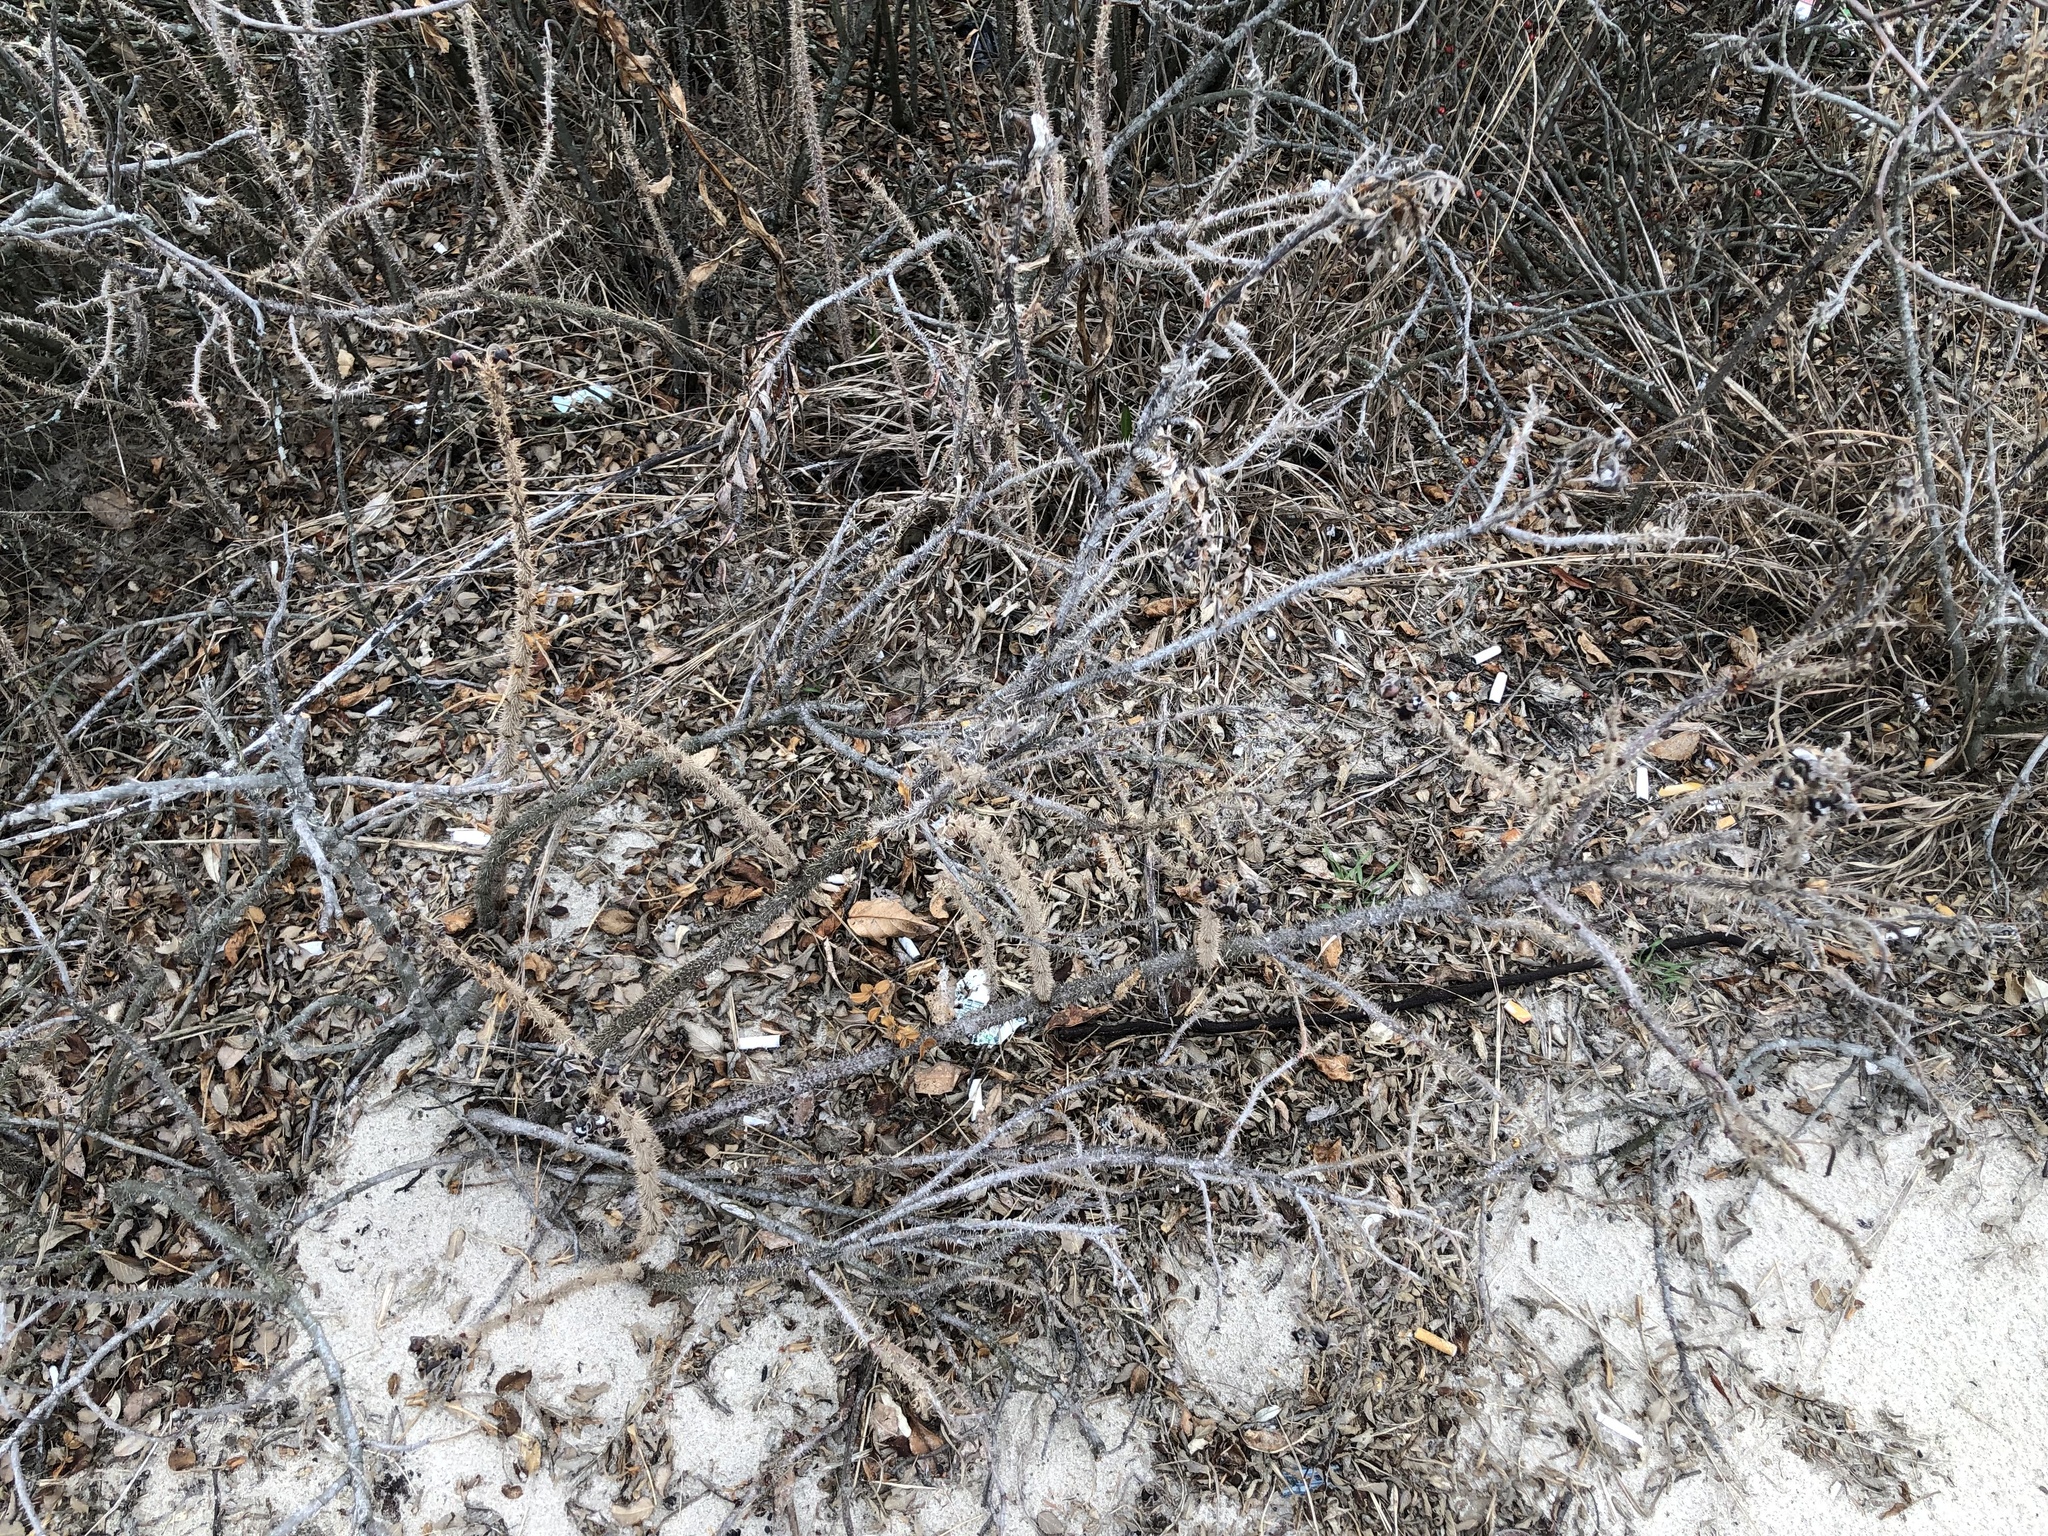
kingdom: Plantae
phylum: Tracheophyta
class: Magnoliopsida
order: Rosales
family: Rosaceae
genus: Rosa
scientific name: Rosa rugosa
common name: Japanese rose
